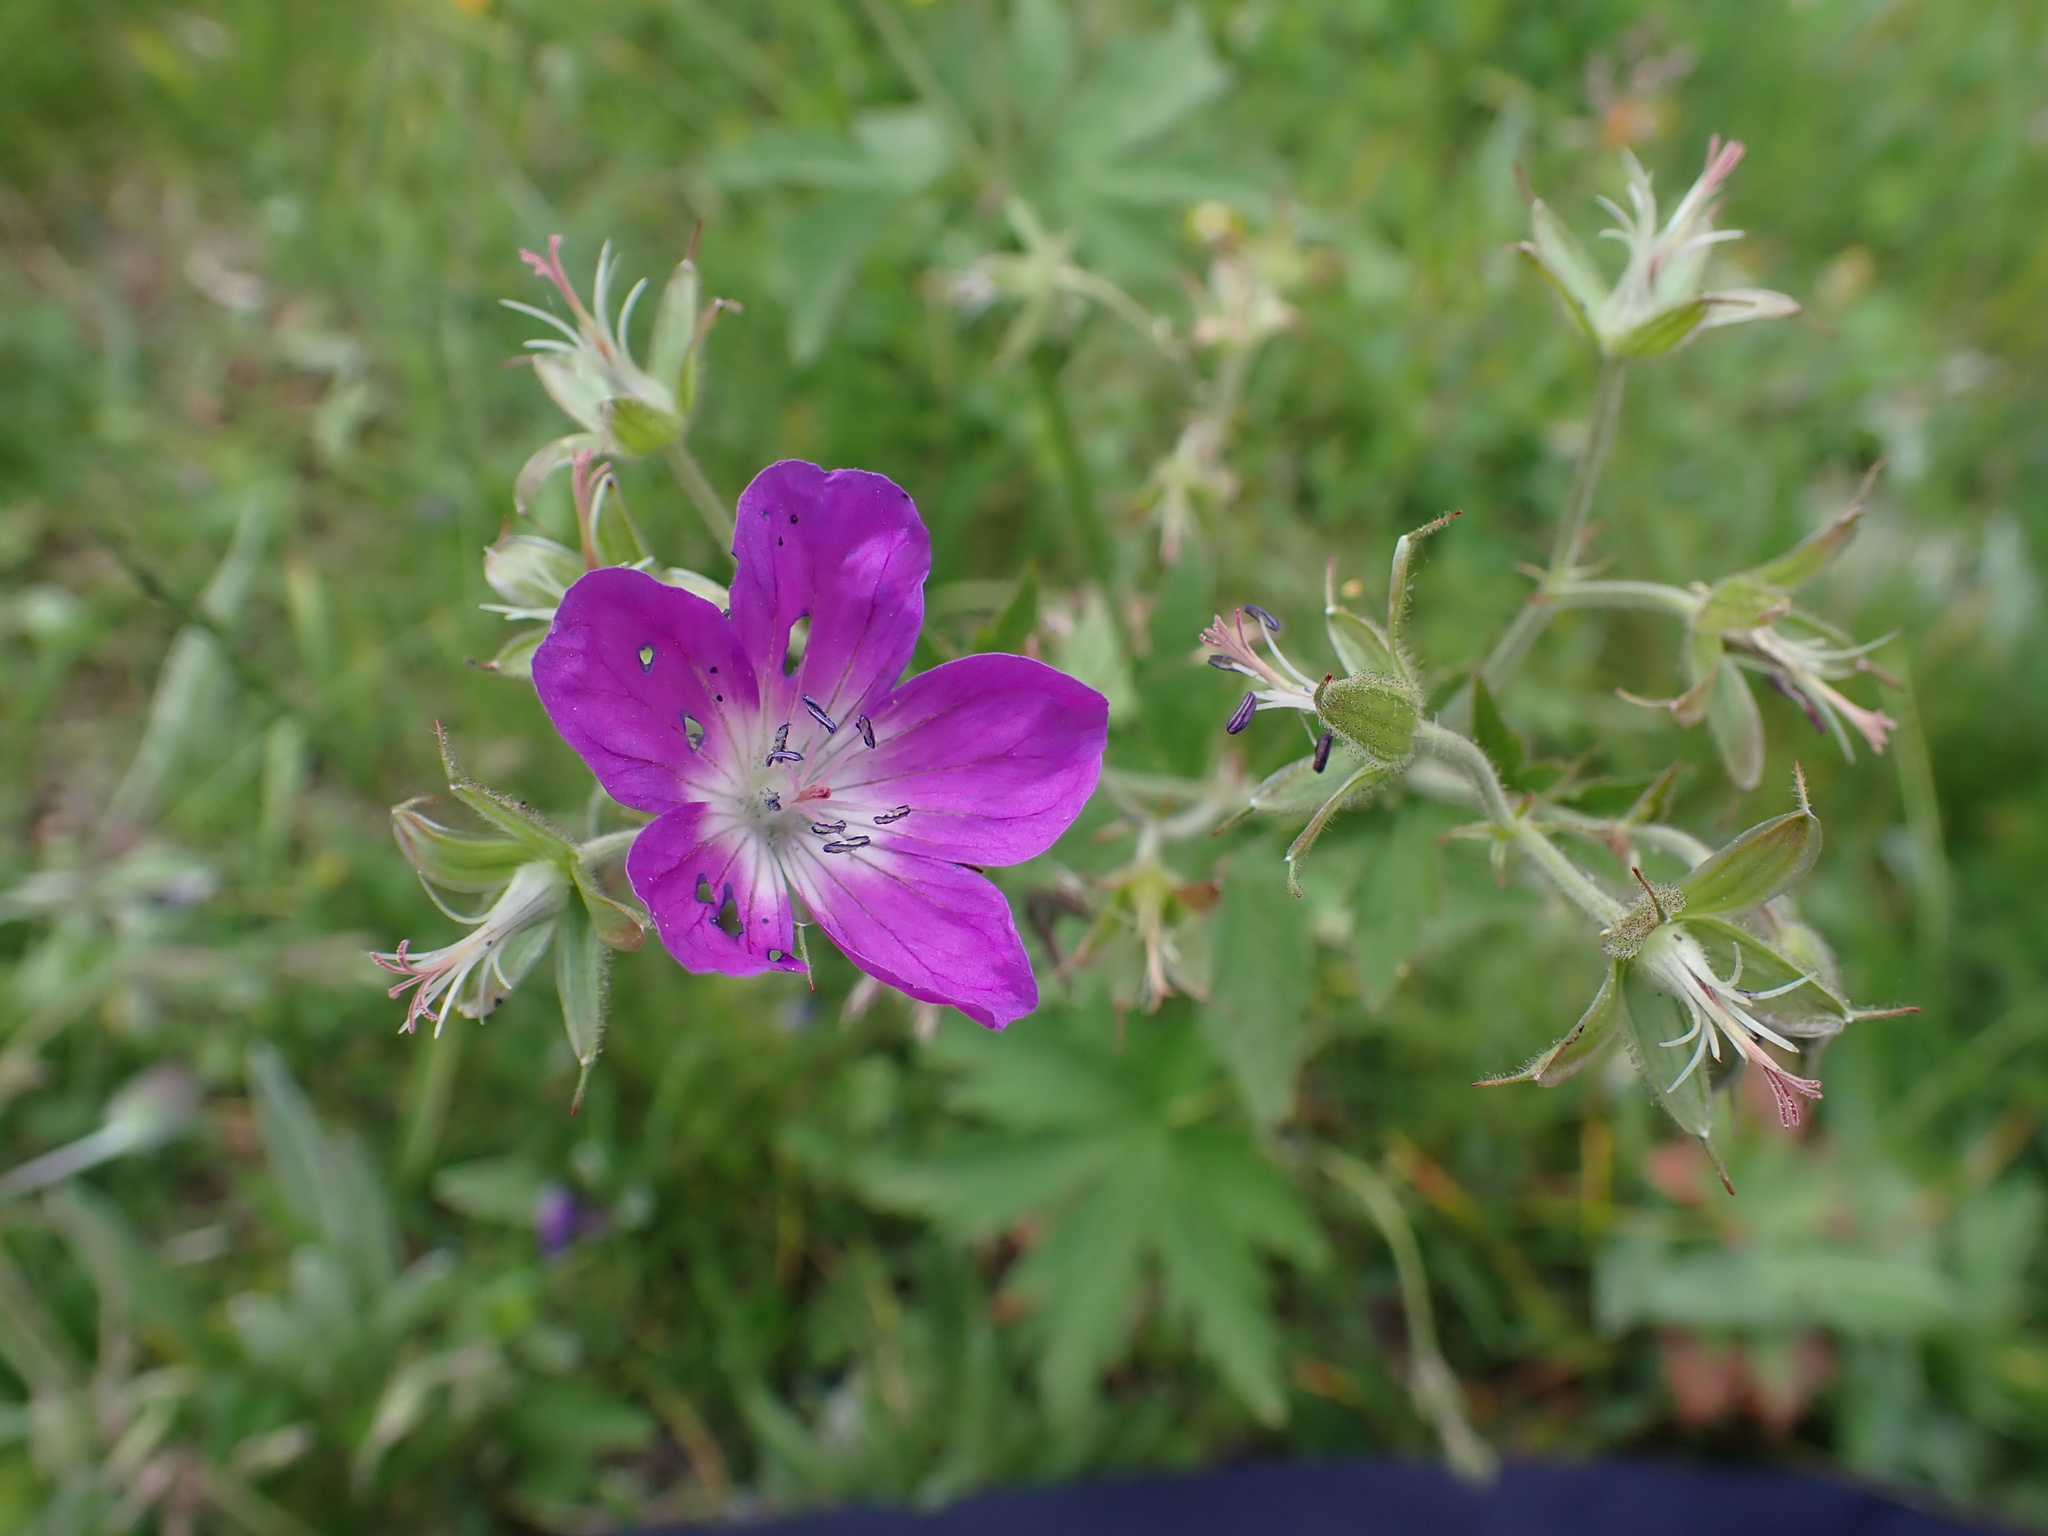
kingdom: Plantae
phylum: Tracheophyta
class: Magnoliopsida
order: Geraniales
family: Geraniaceae
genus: Geranium
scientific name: Geranium sylvaticum
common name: Wood crane's-bill
